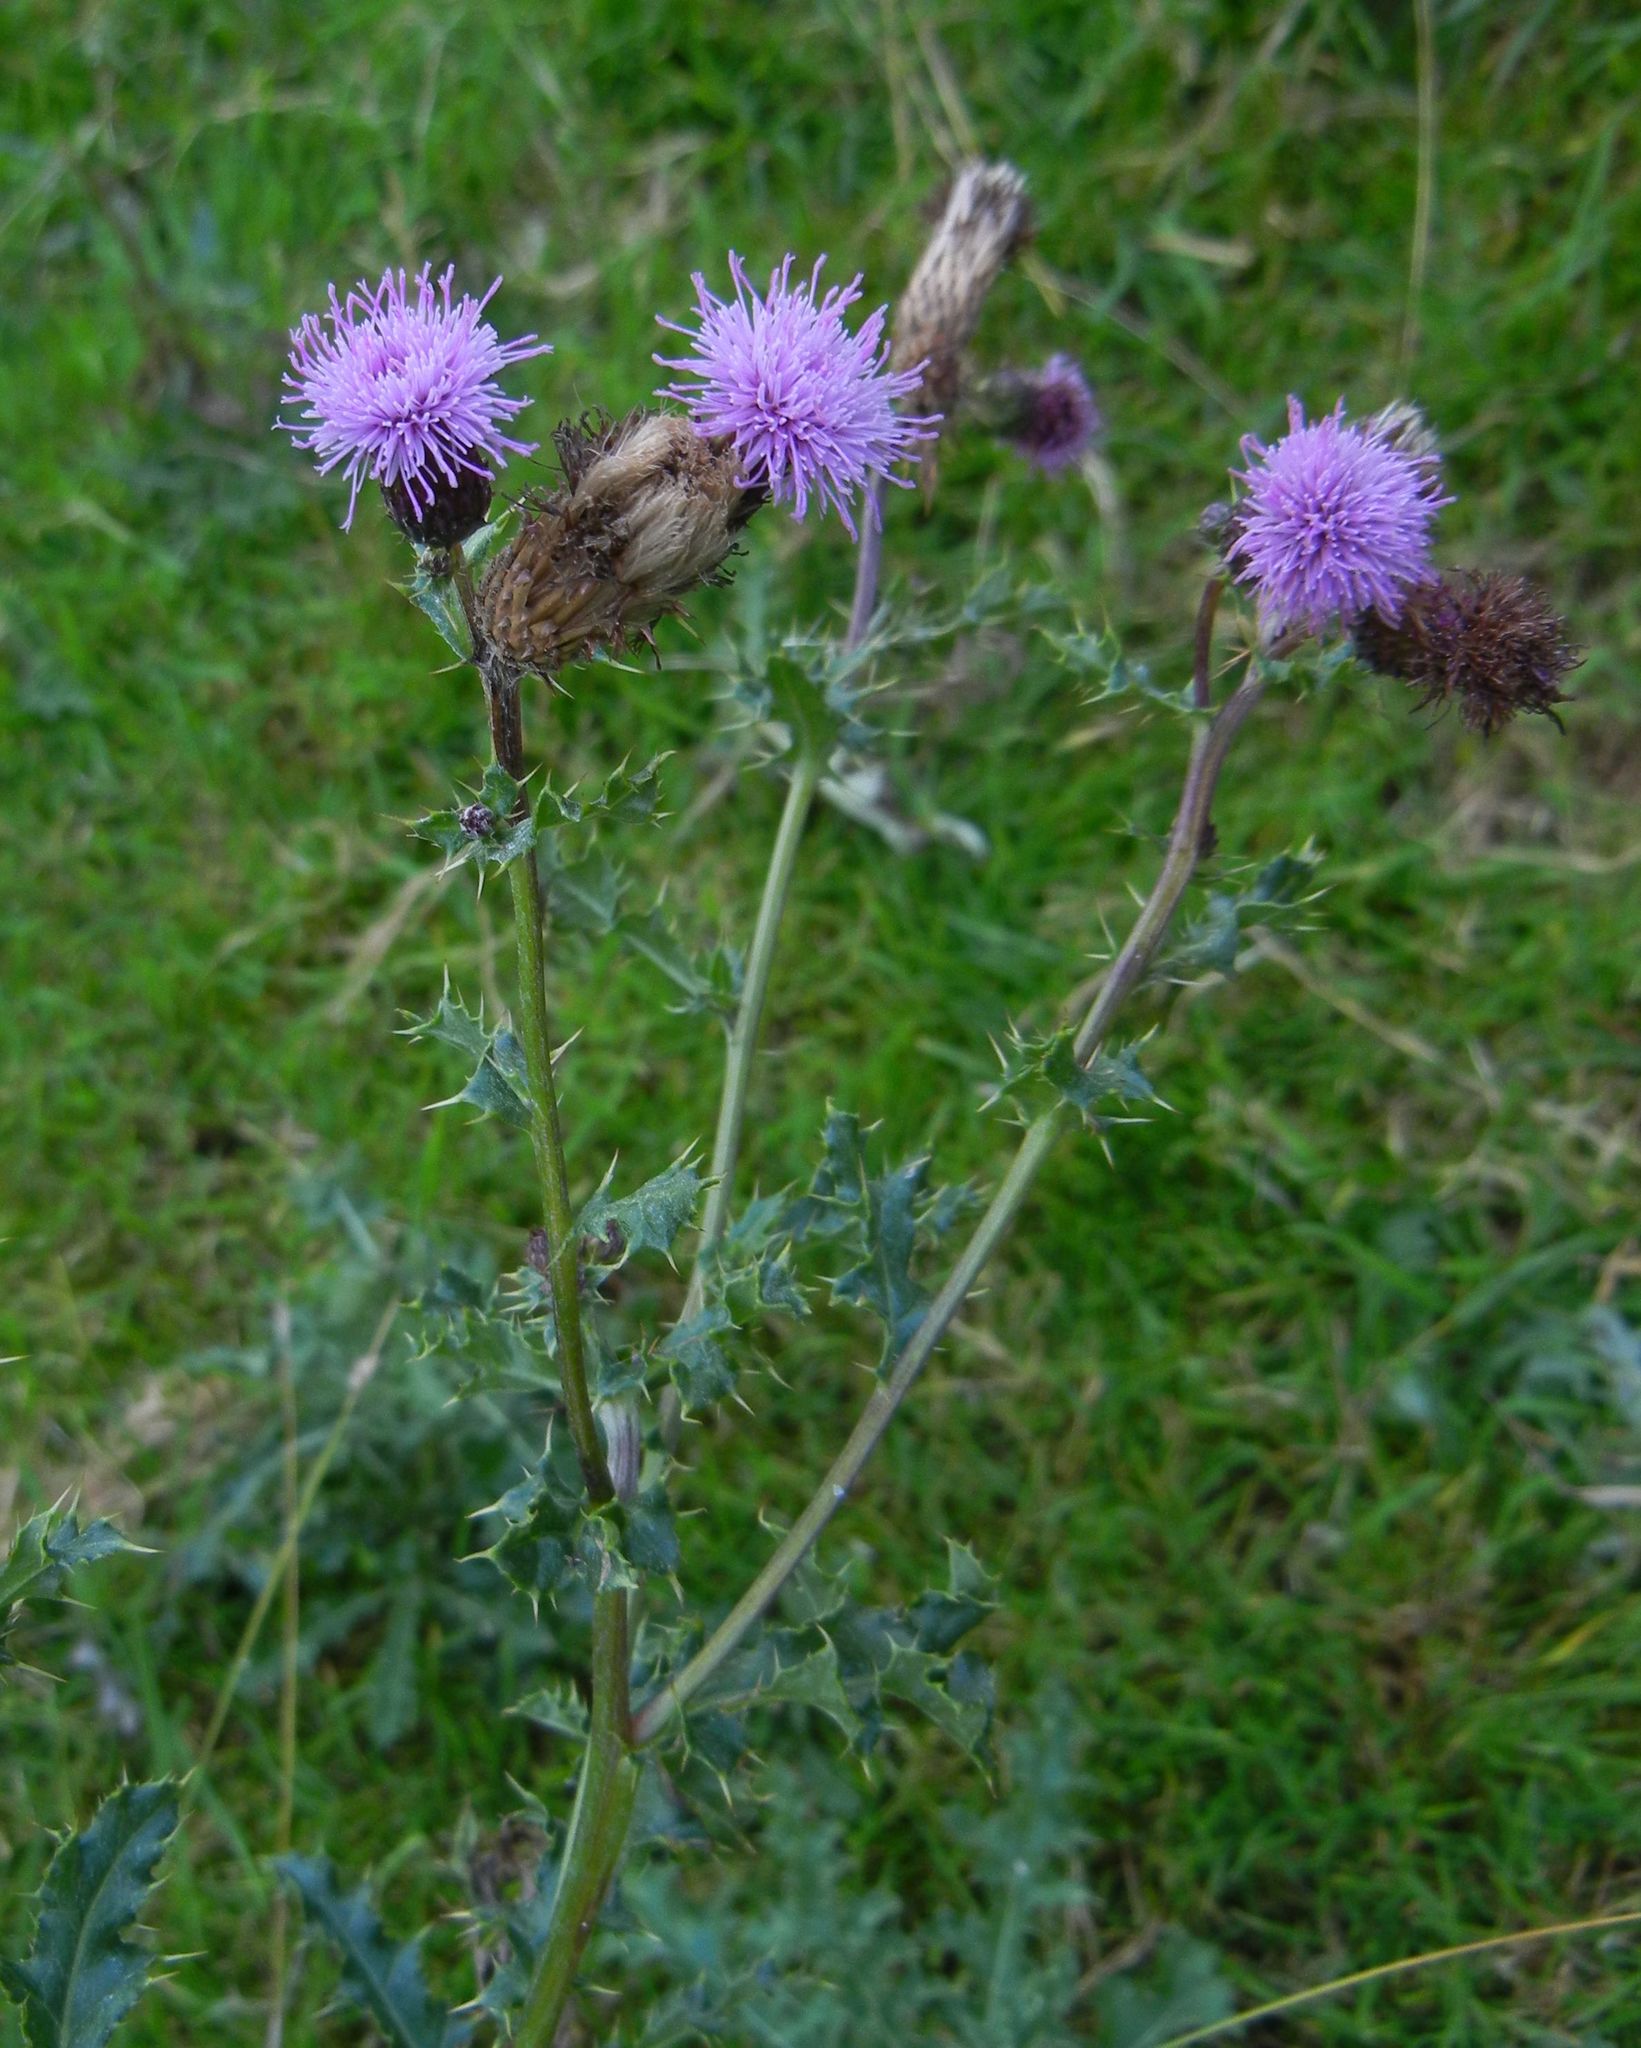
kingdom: Plantae
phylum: Tracheophyta
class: Magnoliopsida
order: Asterales
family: Asteraceae
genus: Cirsium
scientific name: Cirsium arvense
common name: Creeping thistle
